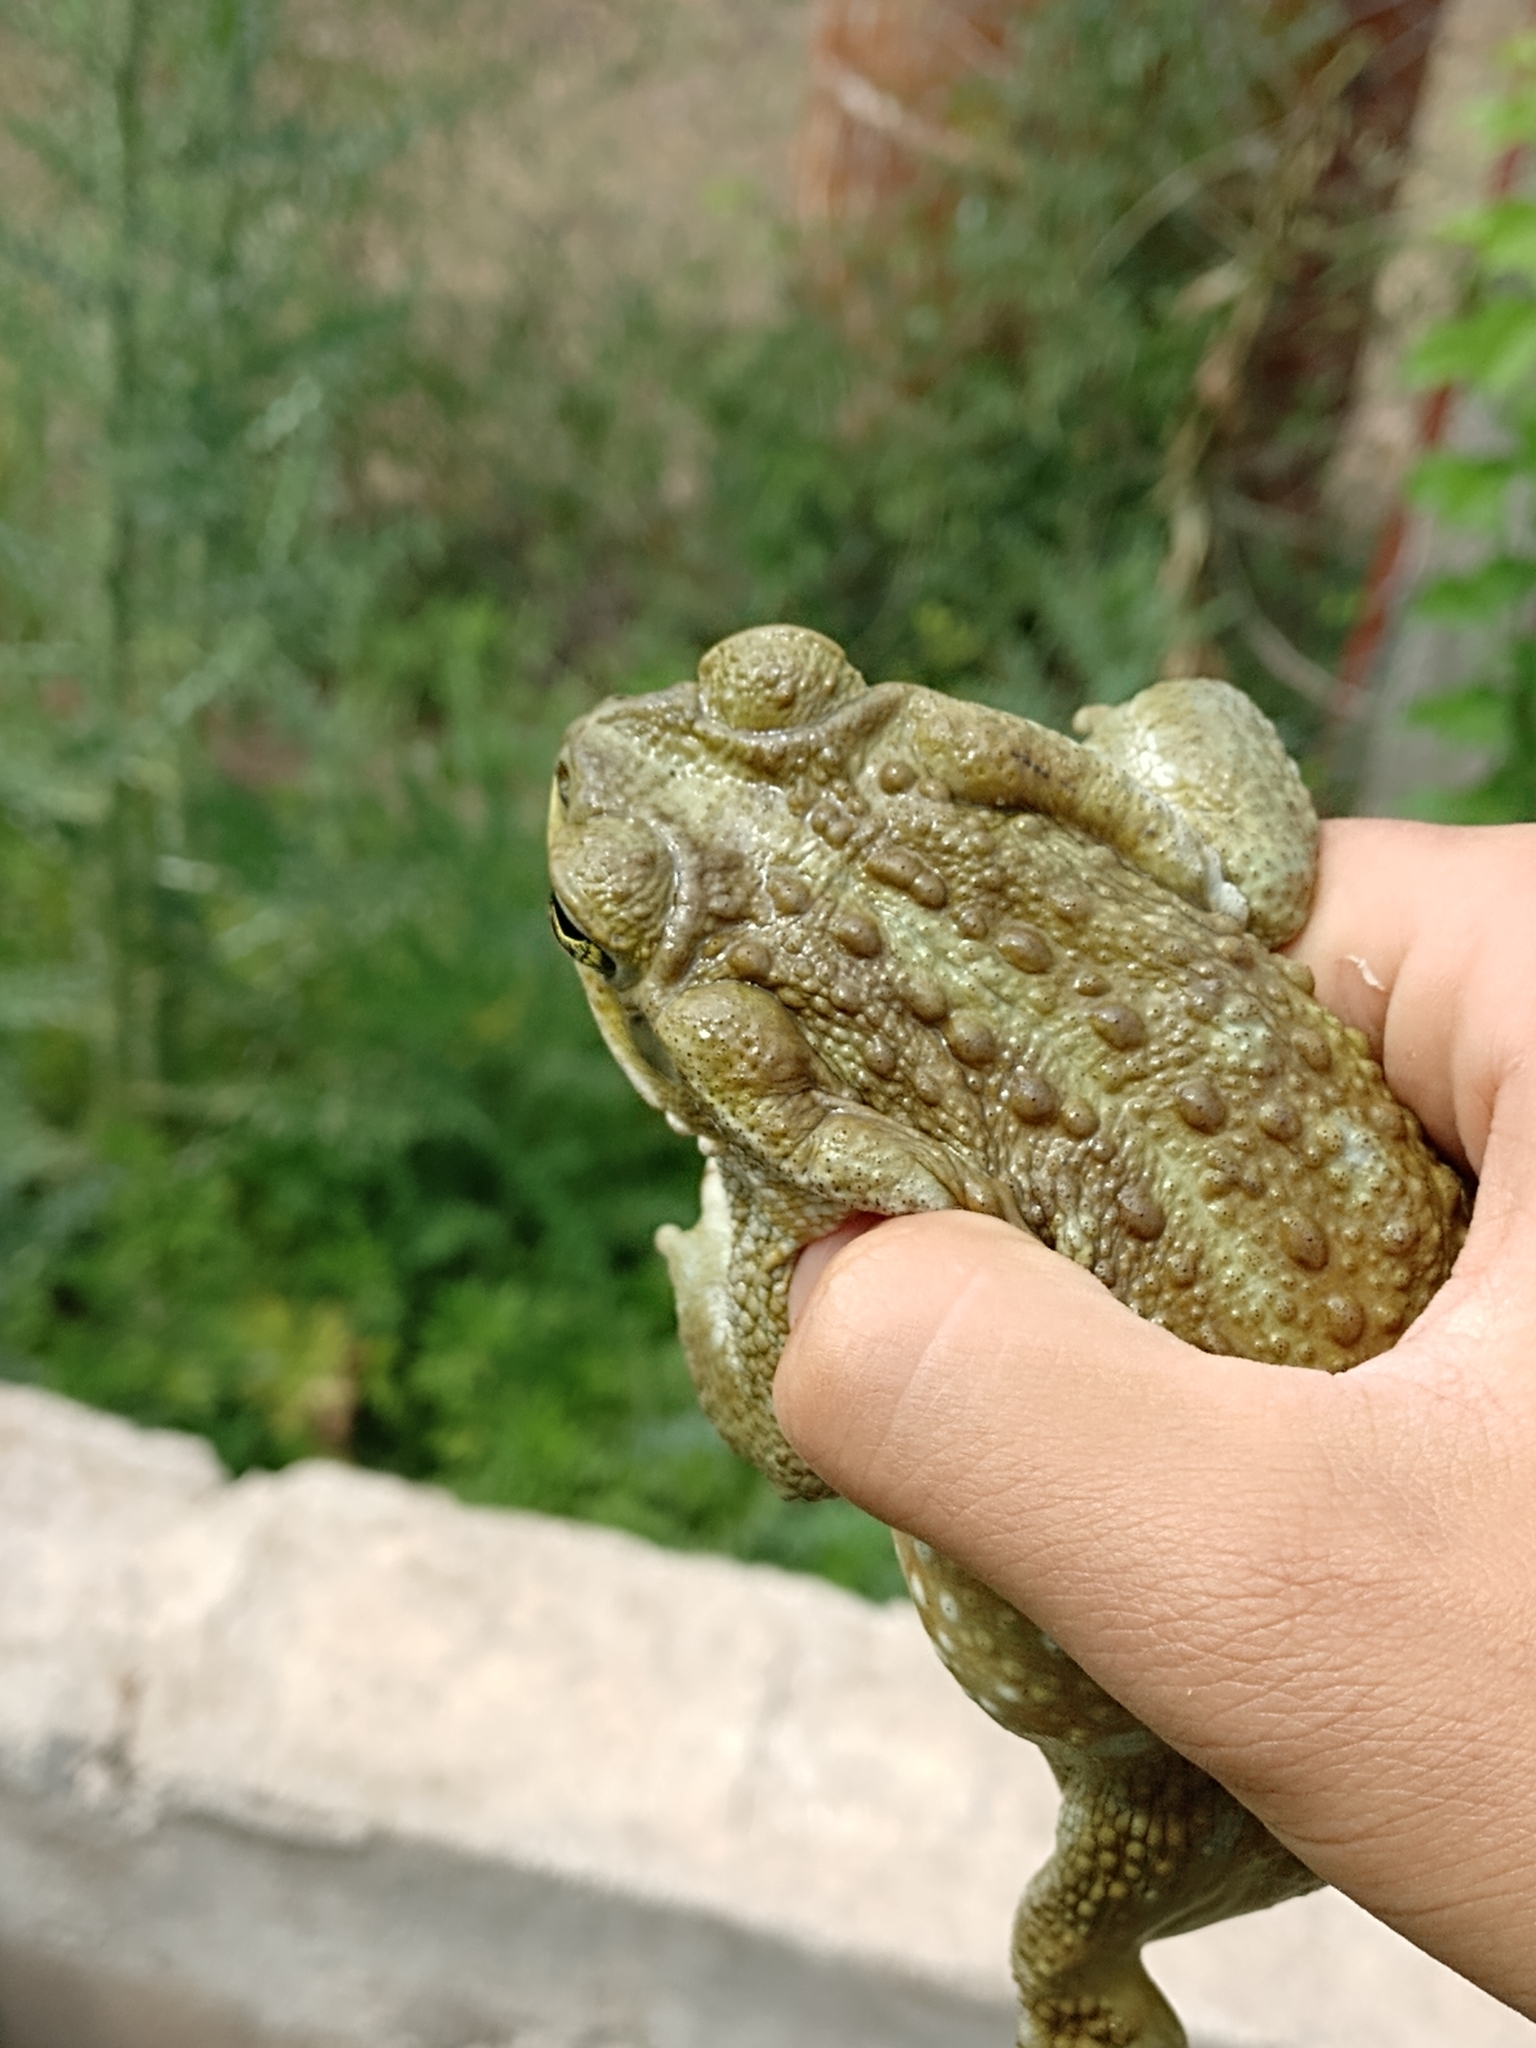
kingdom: Animalia
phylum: Chordata
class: Amphibia
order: Anura
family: Bufonidae
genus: Rhinella
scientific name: Rhinella arenarum
